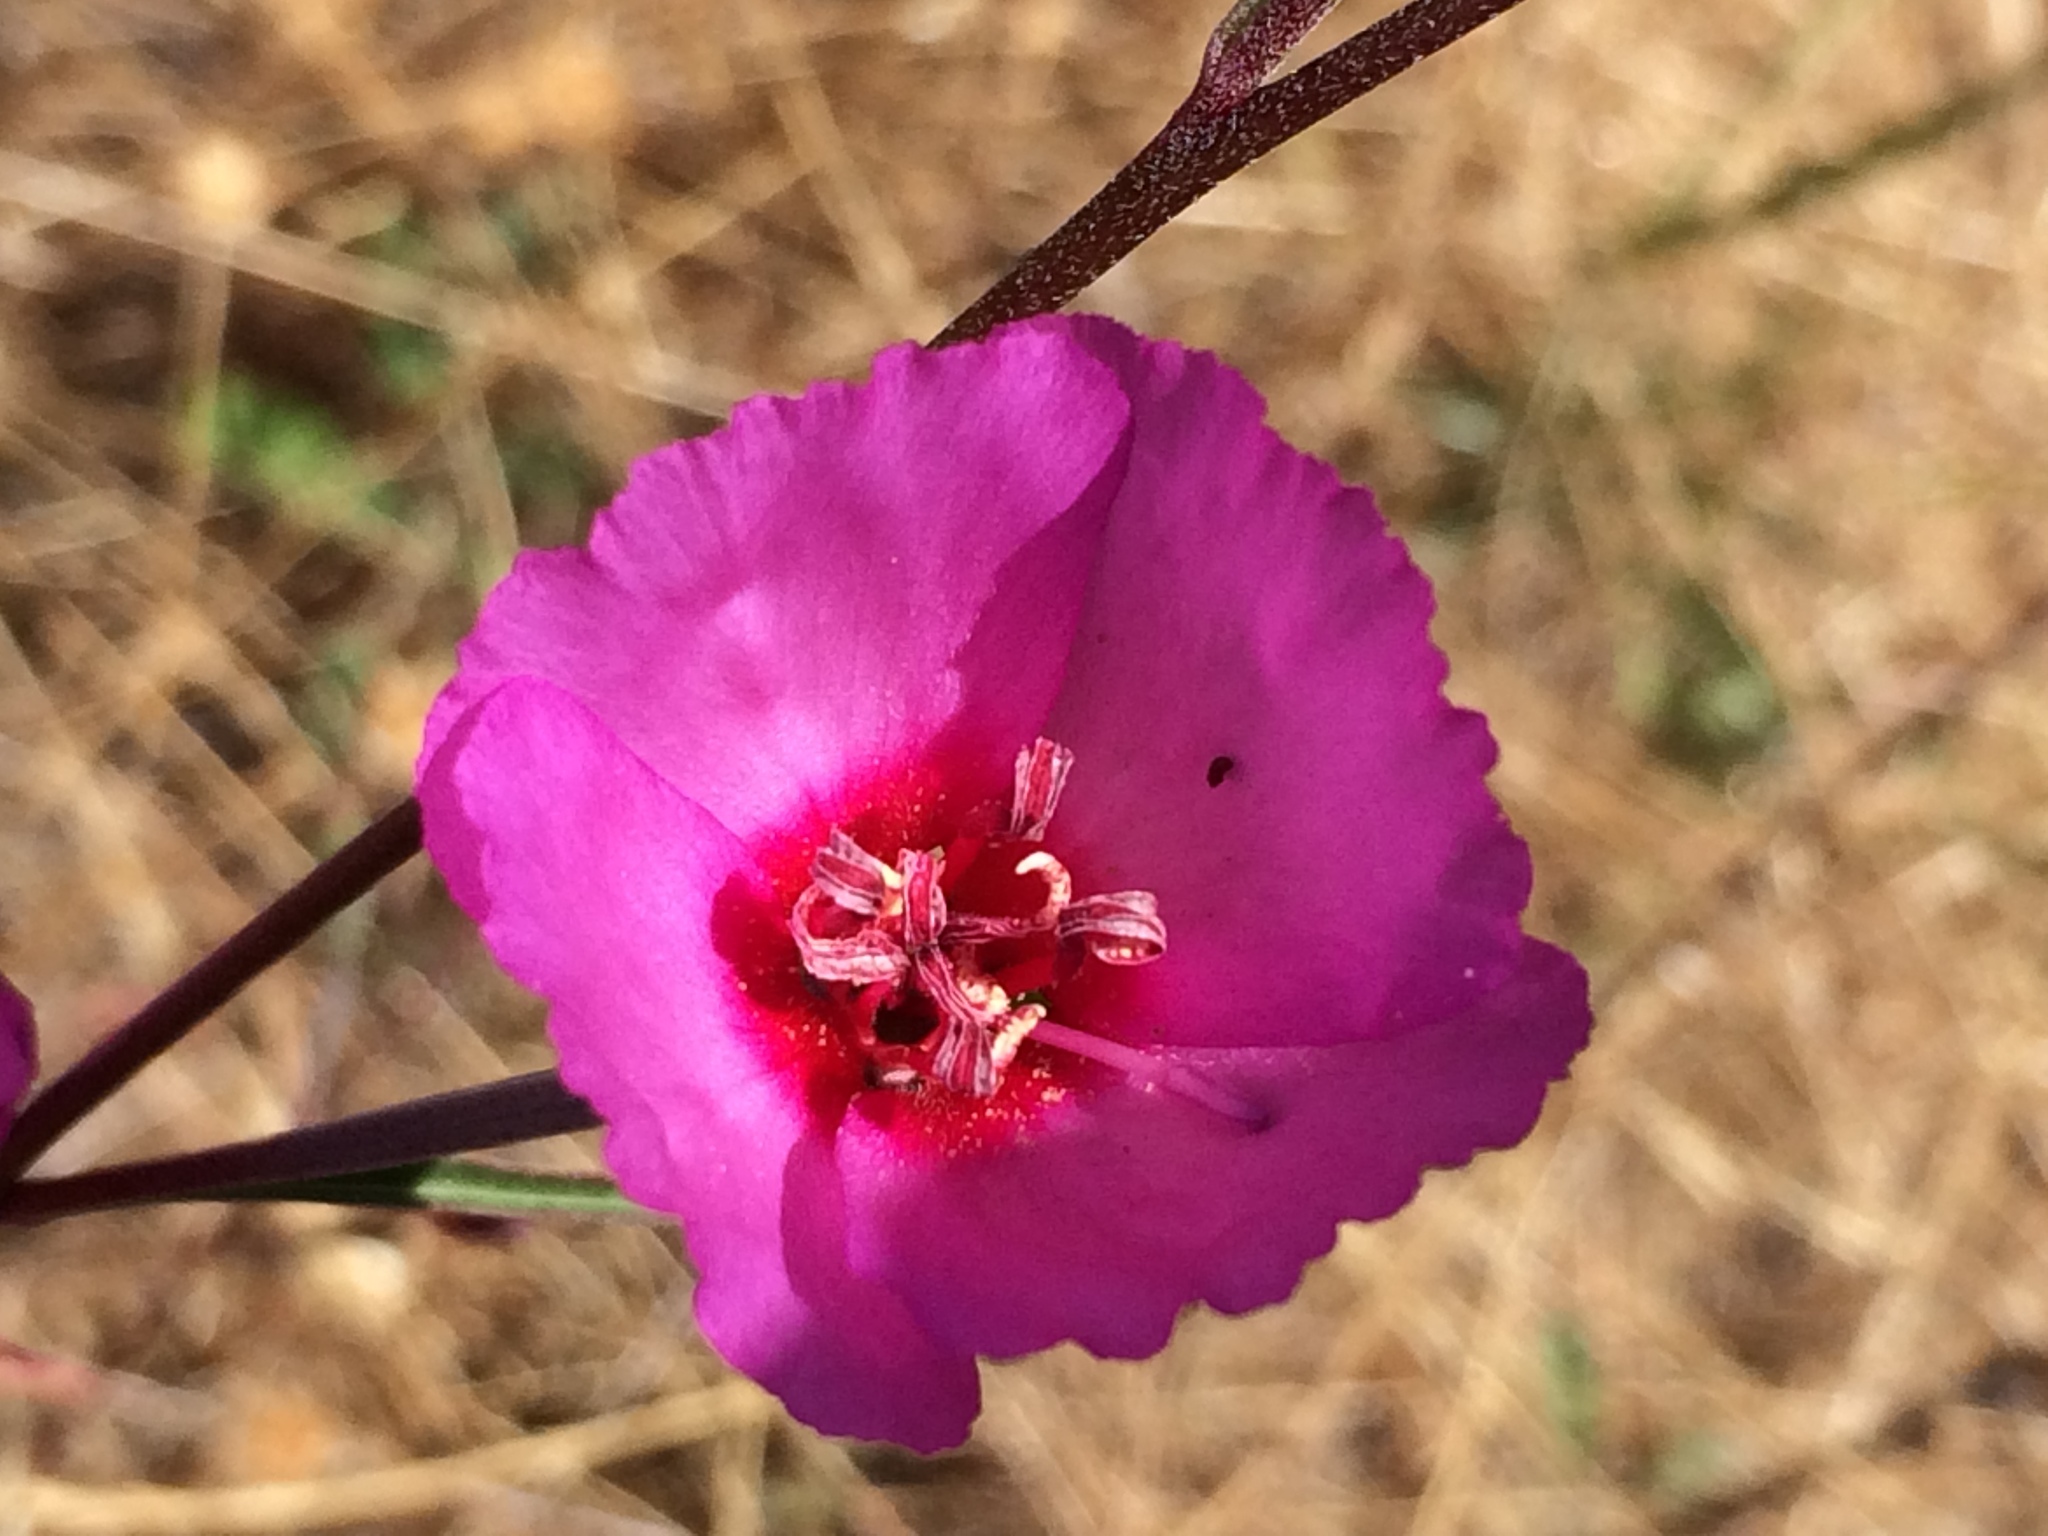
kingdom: Plantae
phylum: Tracheophyta
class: Magnoliopsida
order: Myrtales
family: Onagraceae
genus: Clarkia
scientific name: Clarkia rubicunda
